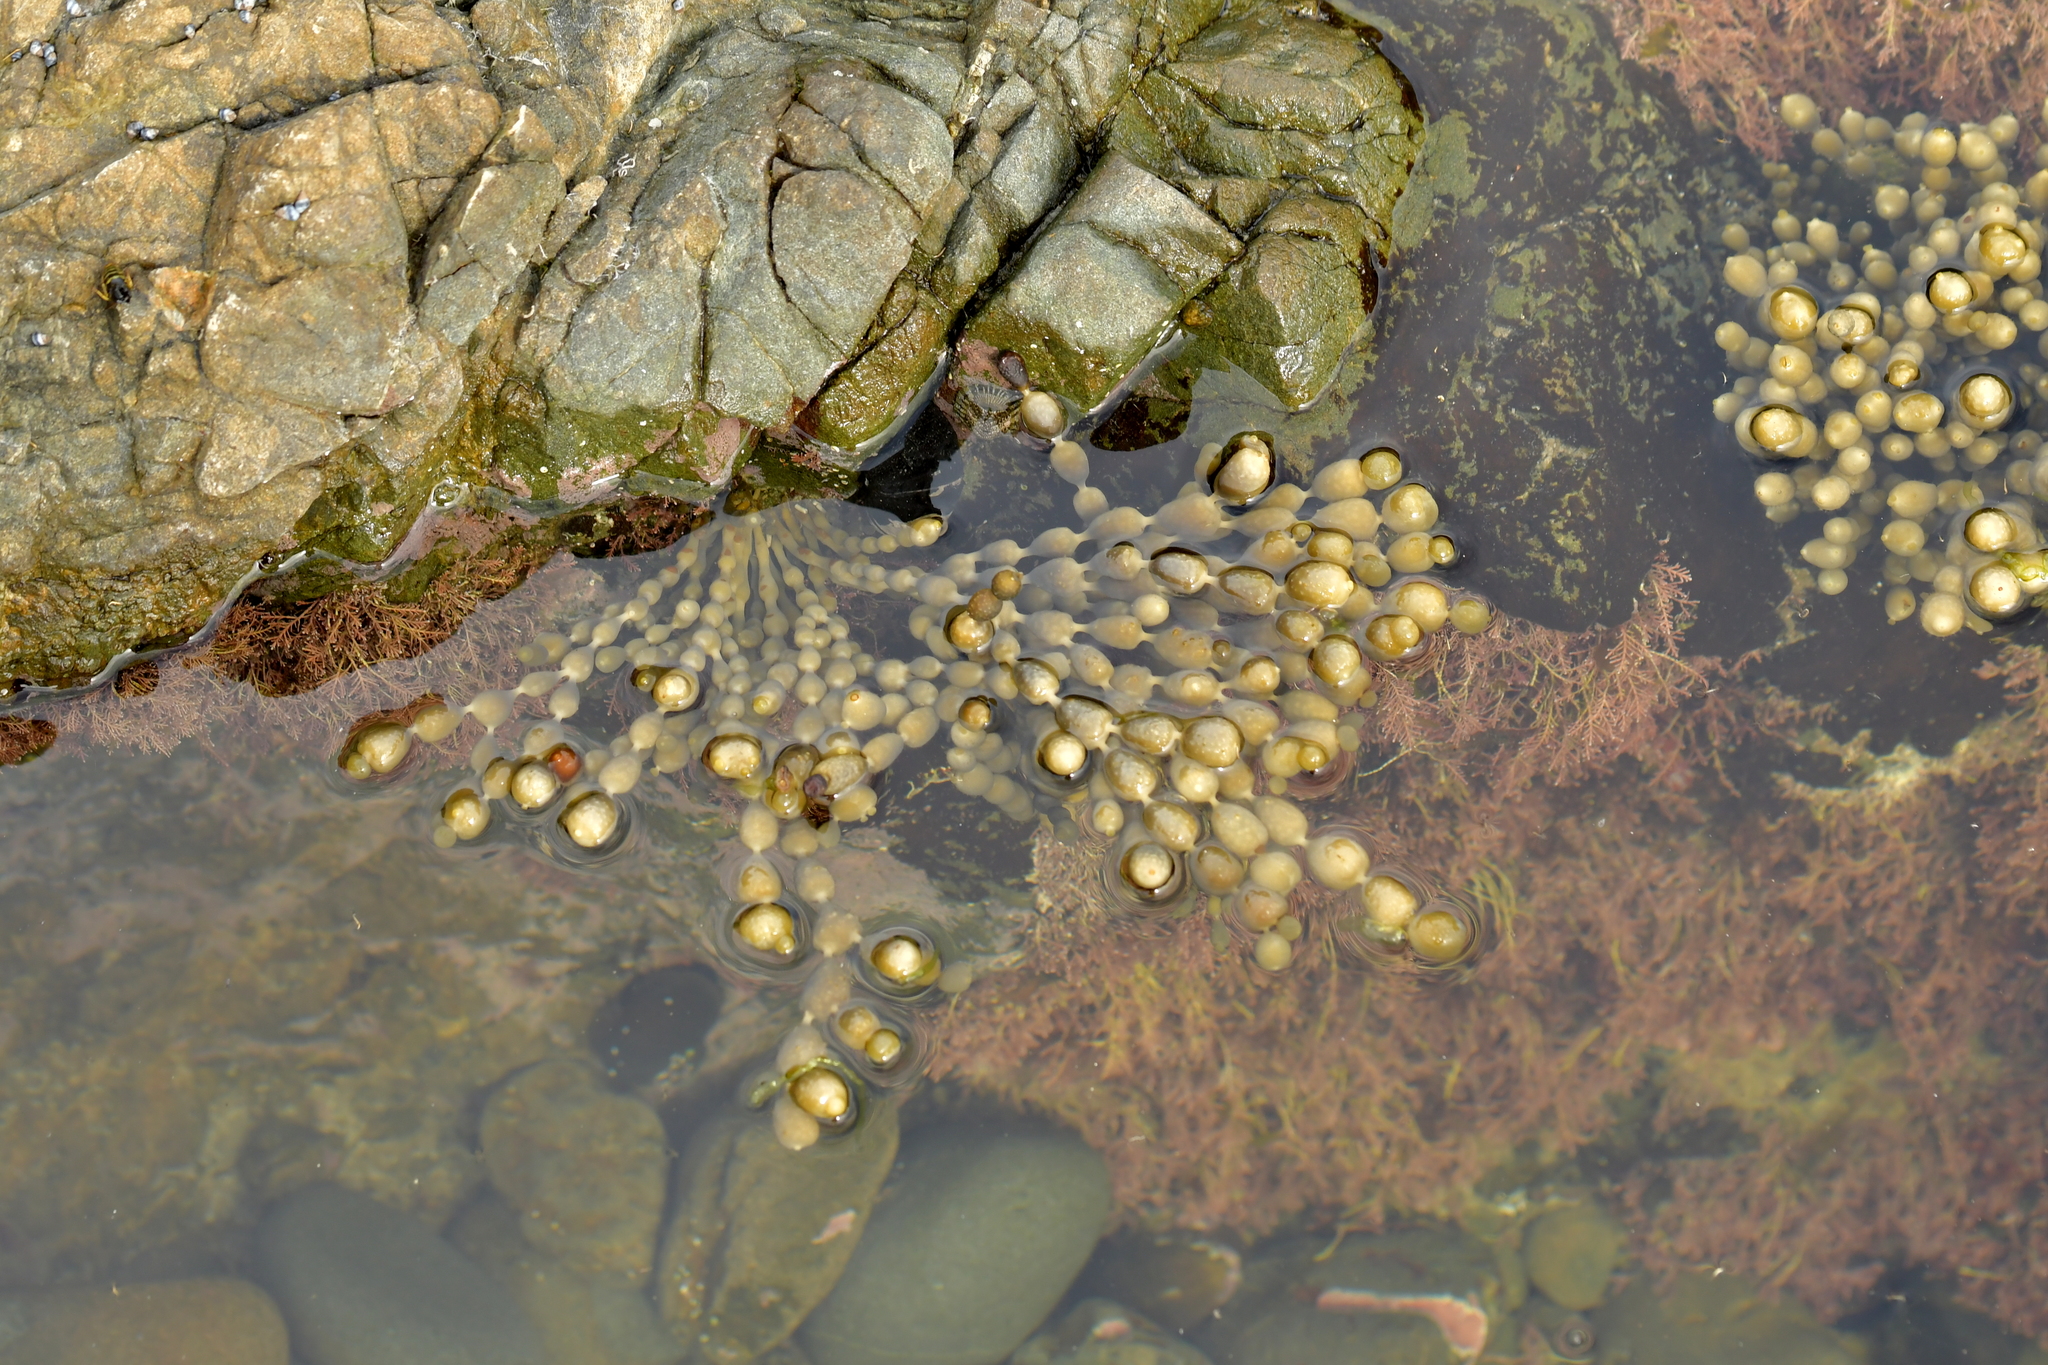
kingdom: Chromista
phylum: Ochrophyta
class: Phaeophyceae
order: Fucales
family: Hormosiraceae
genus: Hormosira
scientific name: Hormosira banksii
